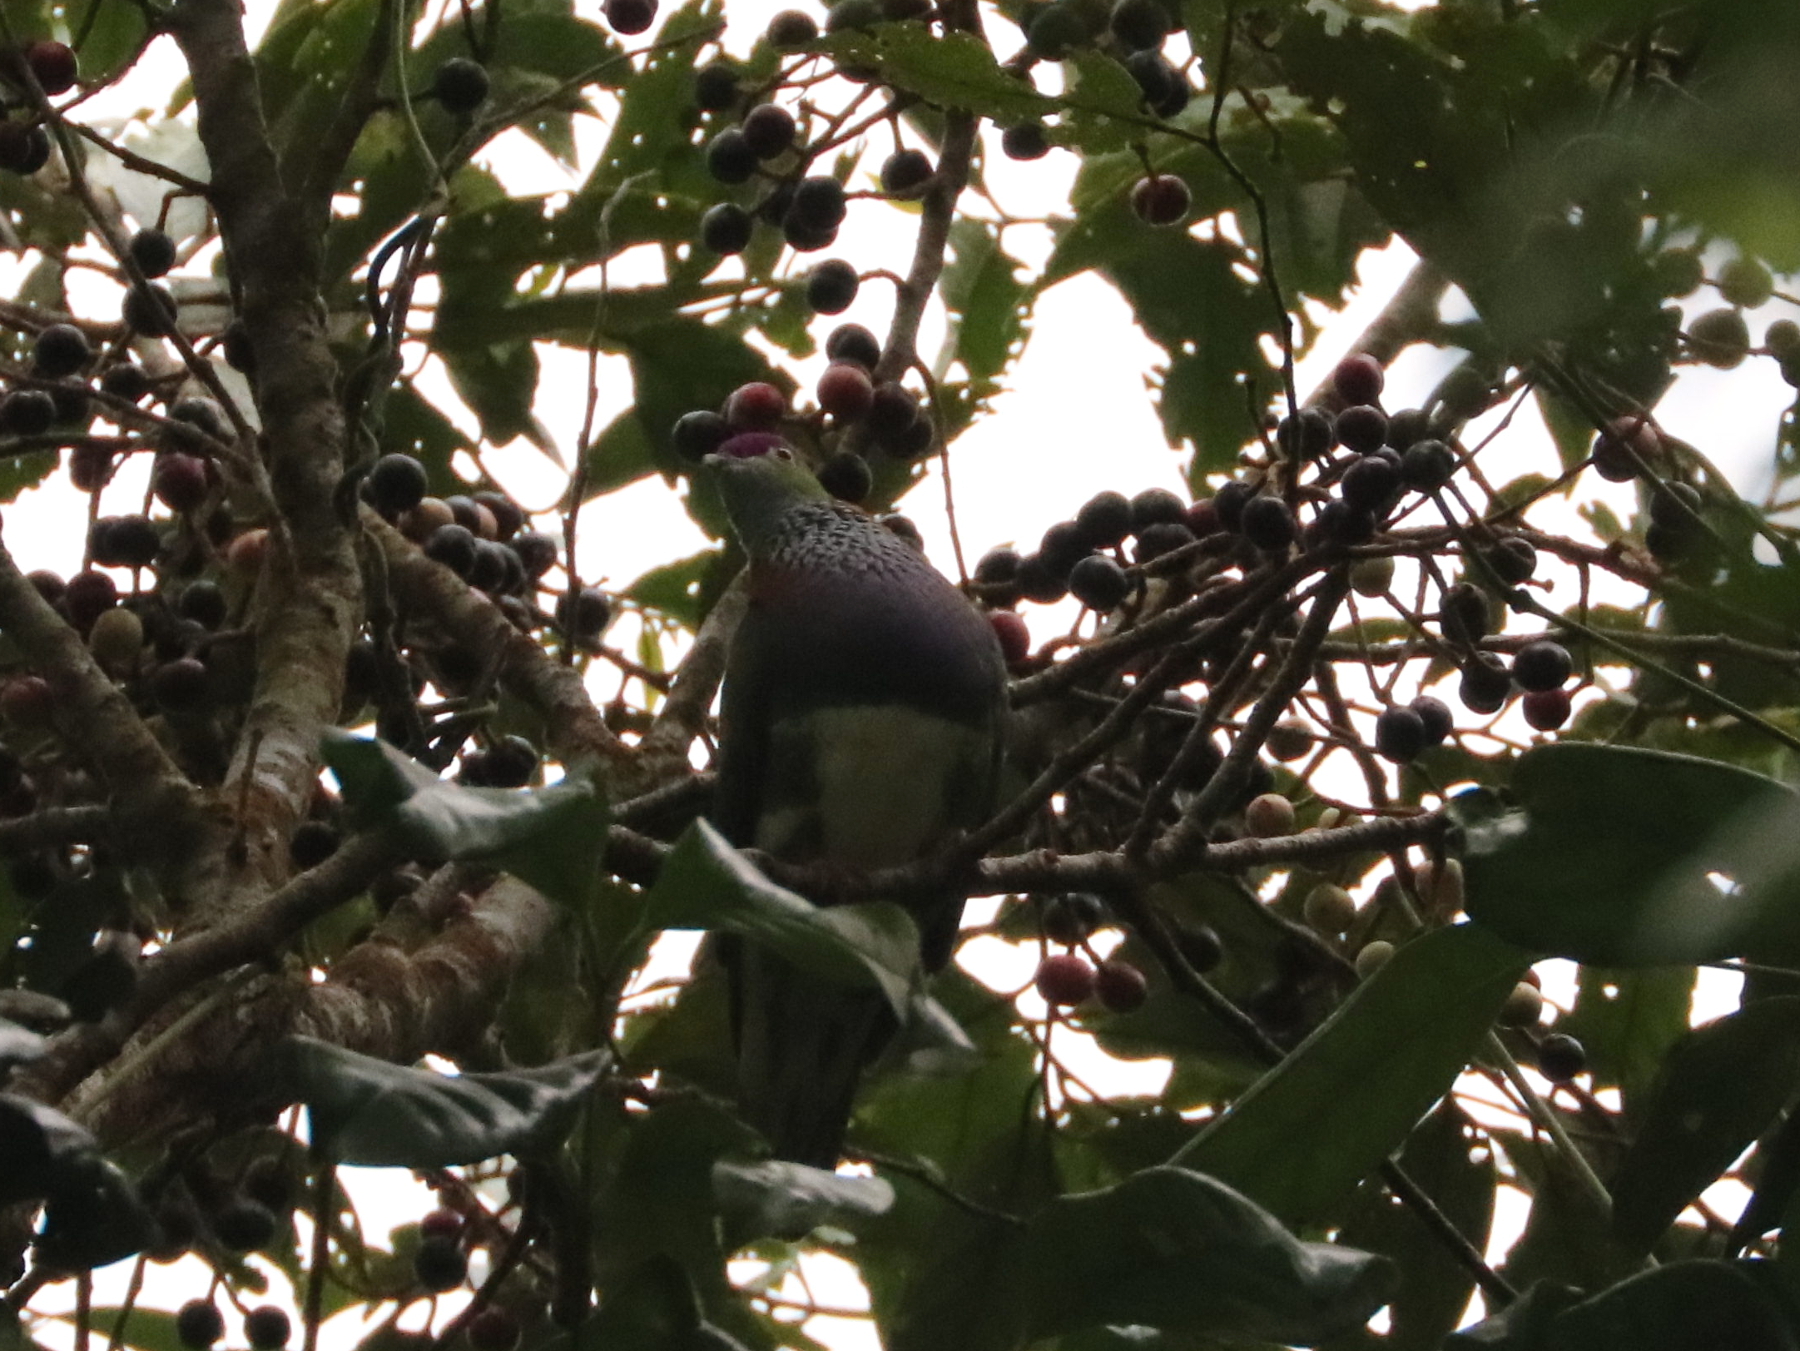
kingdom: Animalia
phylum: Chordata
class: Aves
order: Columbiformes
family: Columbidae
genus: Ptilinopus
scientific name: Ptilinopus superbus
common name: Superb fruit dove
